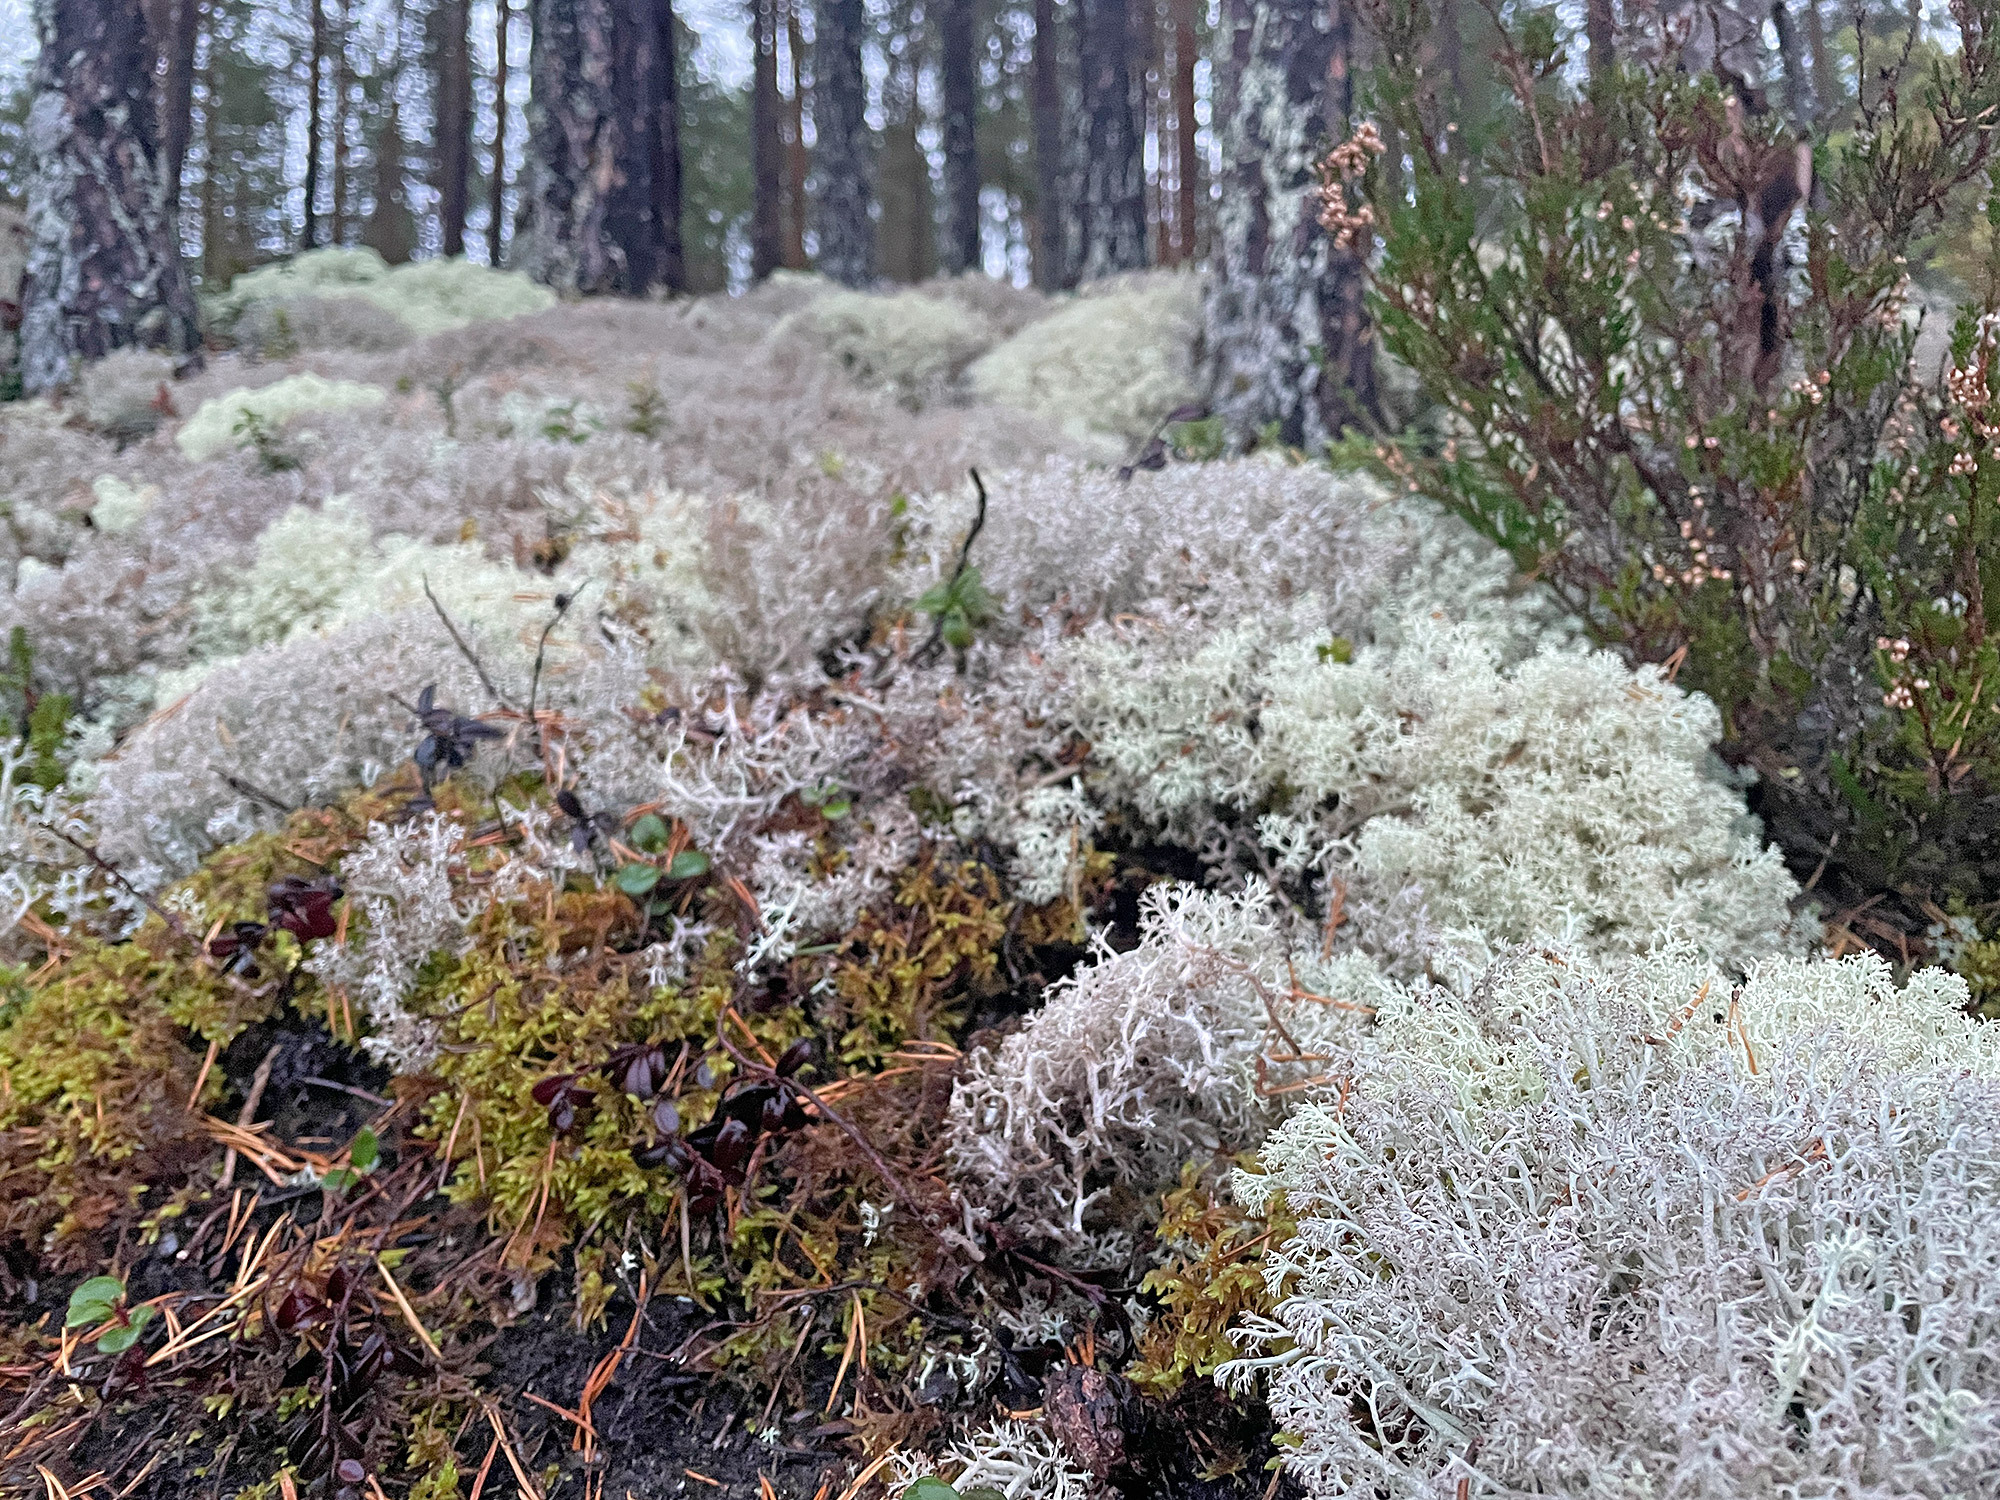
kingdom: Fungi
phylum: Ascomycota
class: Lecanoromycetes
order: Lecanorales
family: Cladoniaceae
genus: Cladonia
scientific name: Cladonia rangiferina
